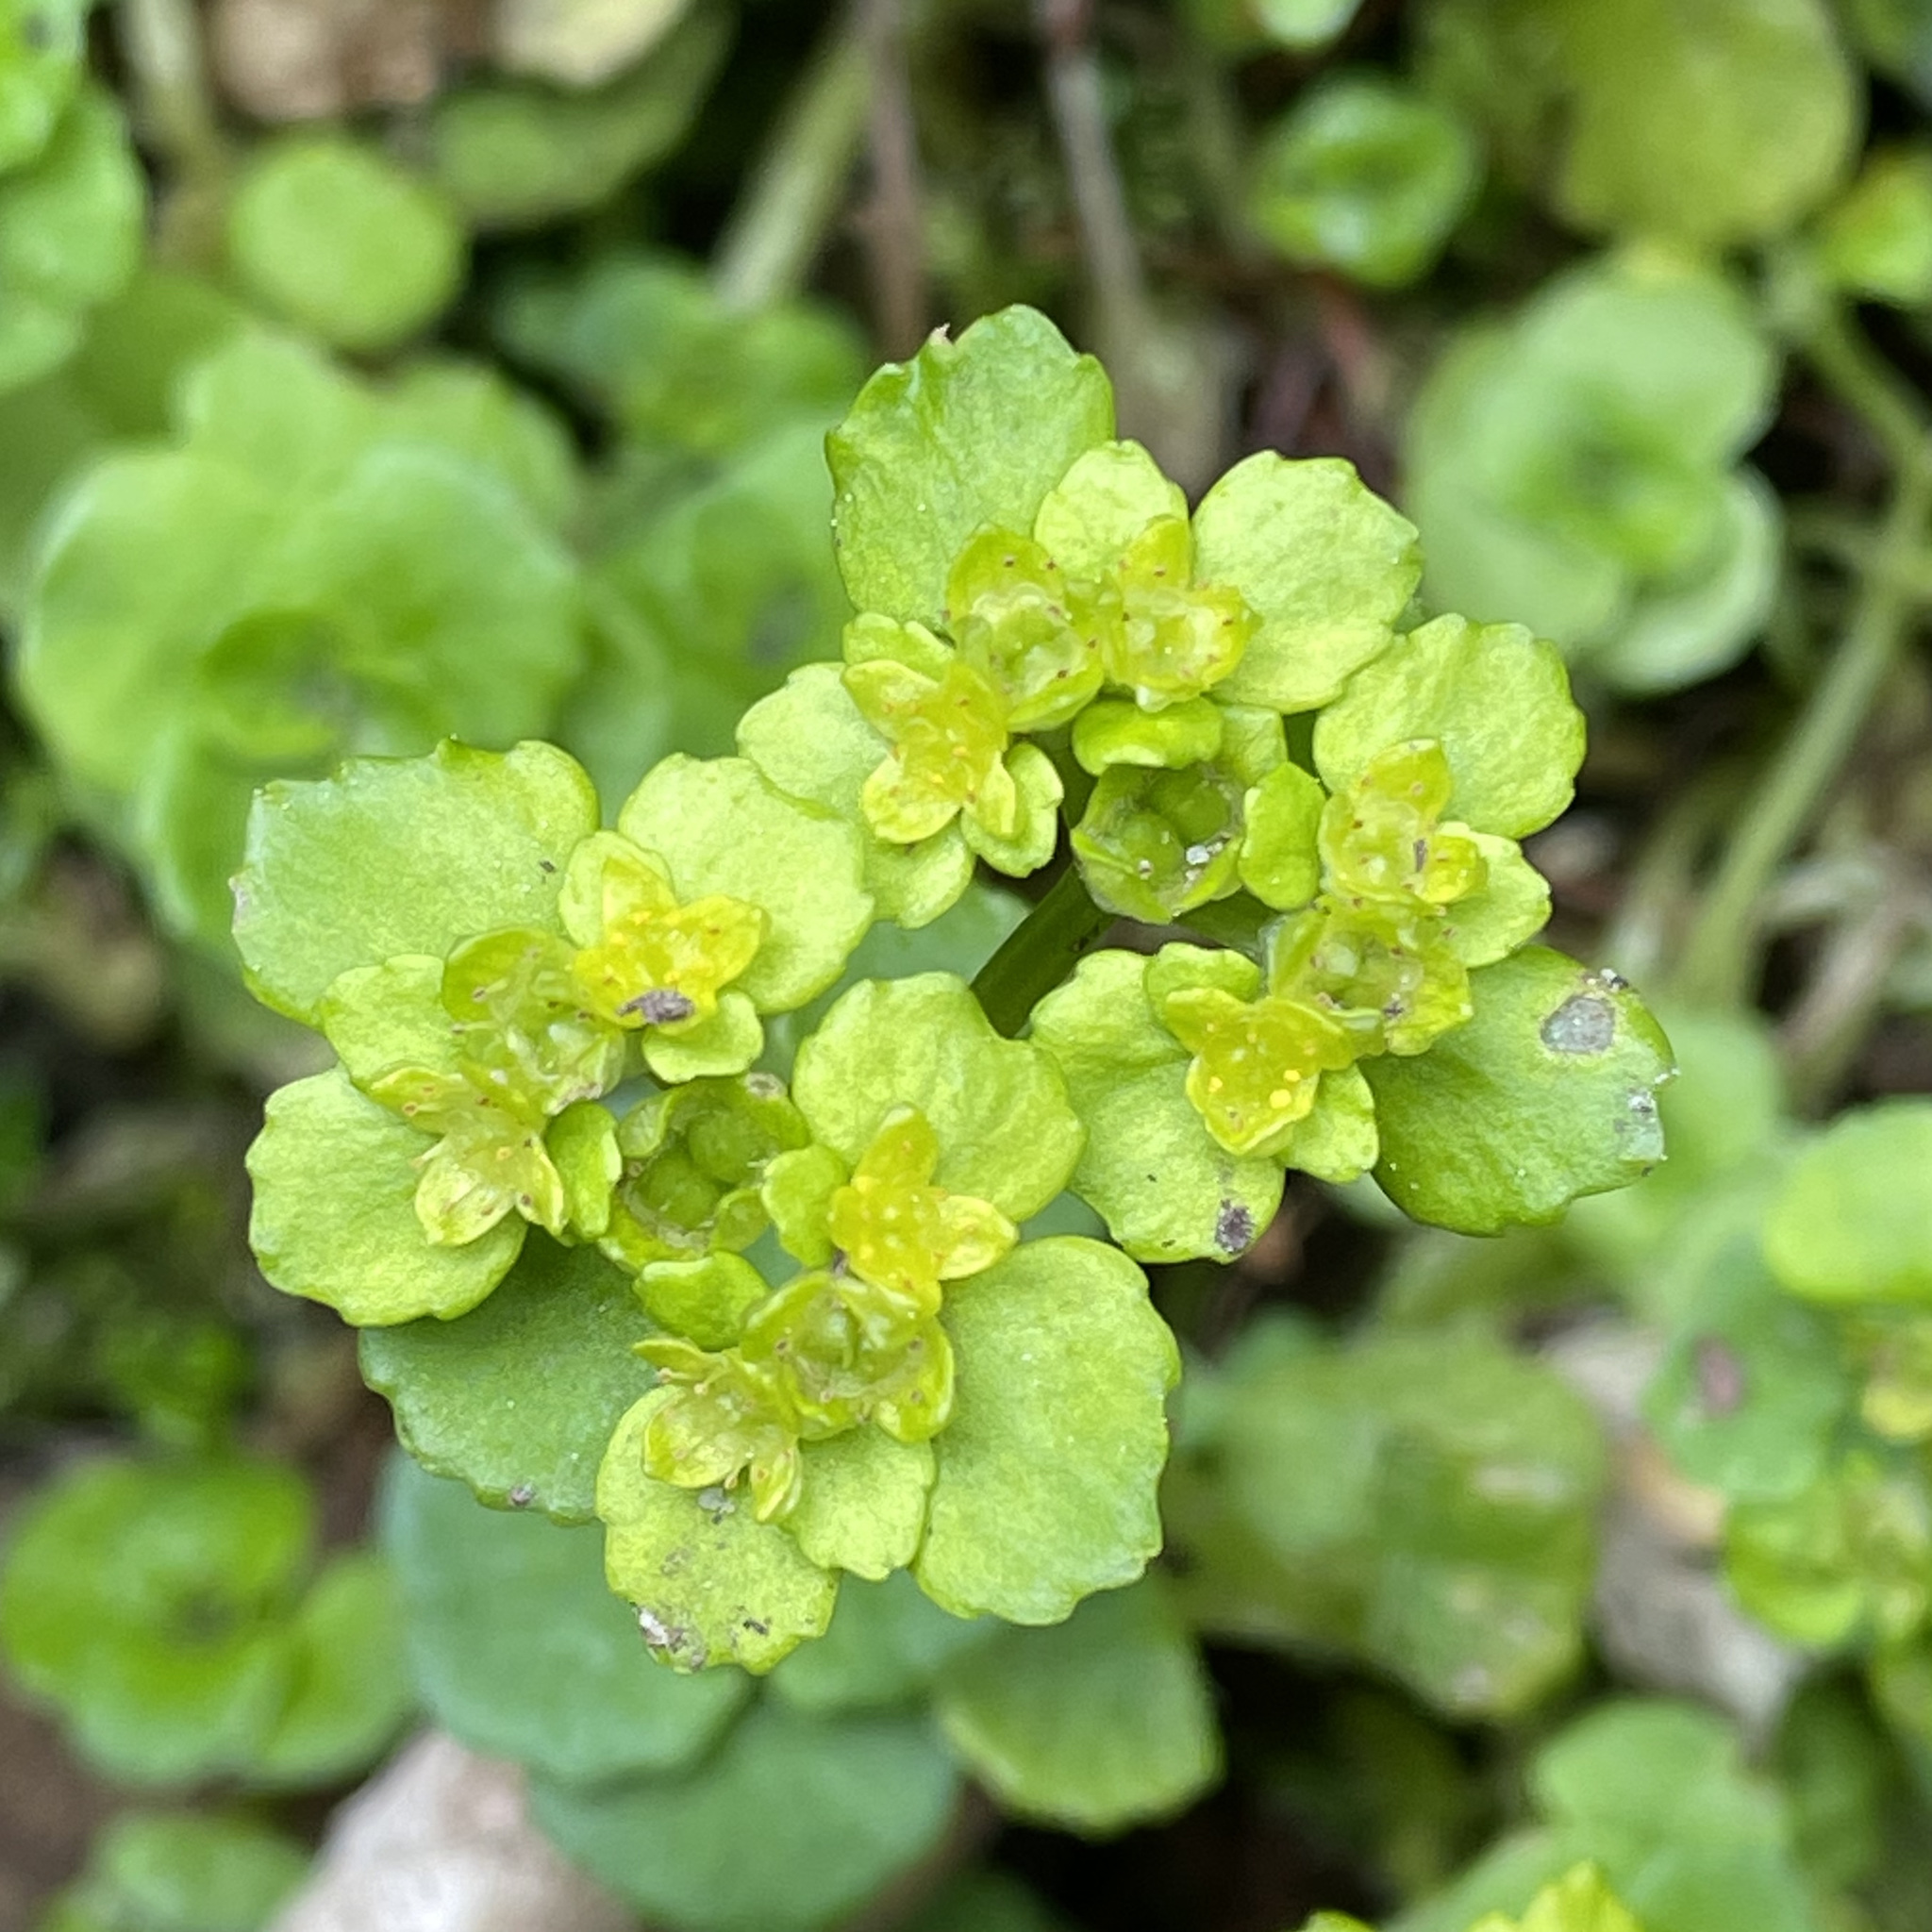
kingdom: Plantae
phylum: Tracheophyta
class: Magnoliopsida
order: Saxifragales
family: Saxifragaceae
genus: Chrysosplenium
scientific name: Chrysosplenium oppositifolium
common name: Opposite-leaved golden-saxifrage
